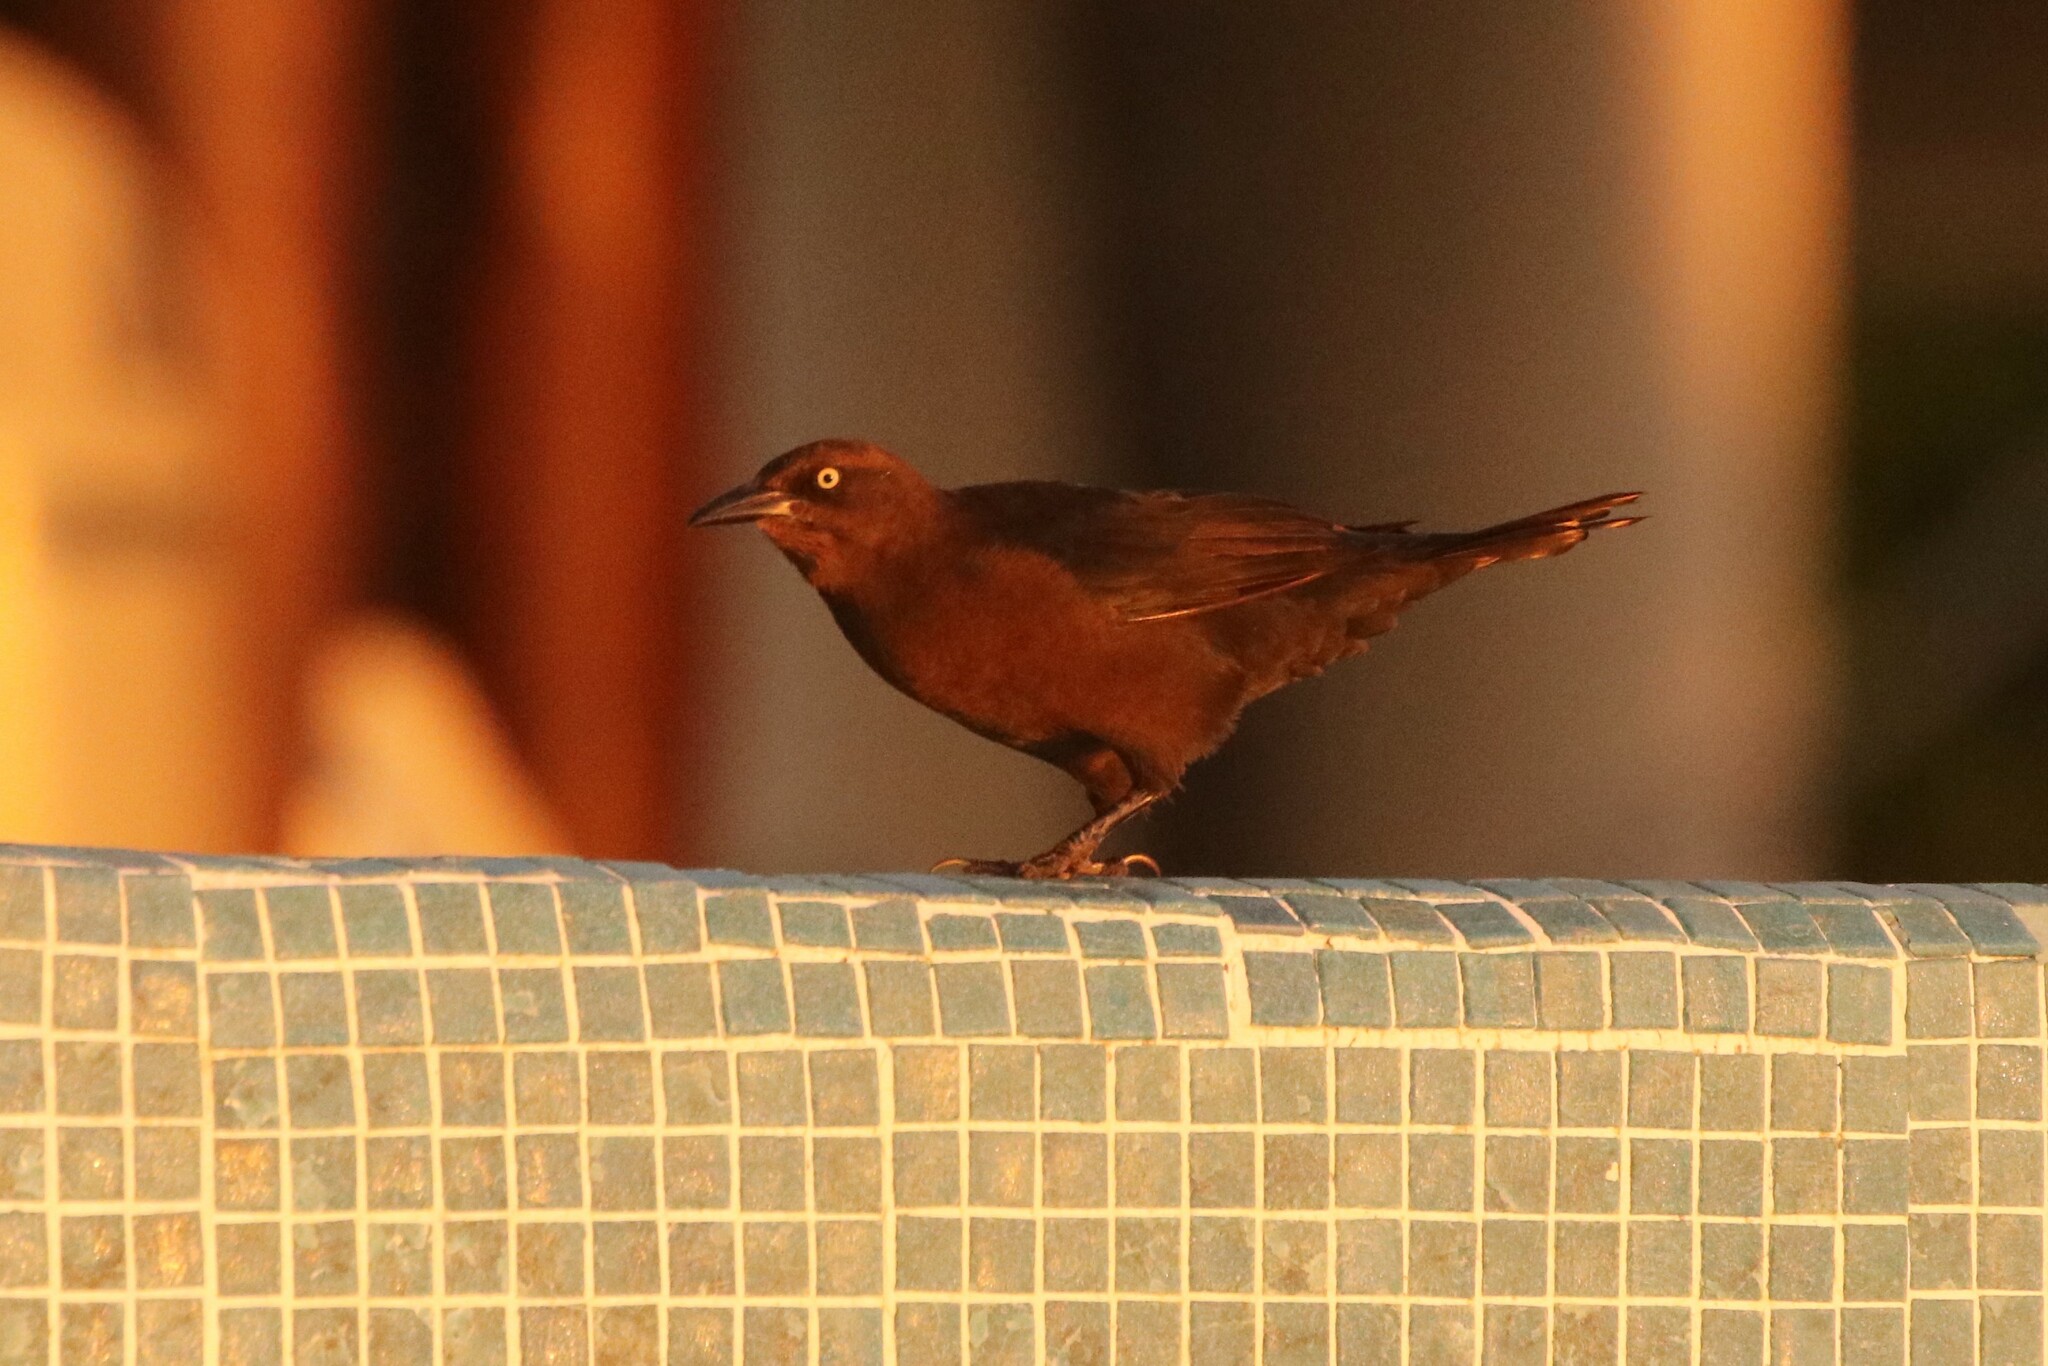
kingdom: Animalia
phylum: Chordata
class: Aves
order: Passeriformes
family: Icteridae
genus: Quiscalus
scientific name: Quiscalus mexicanus
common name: Great-tailed grackle
